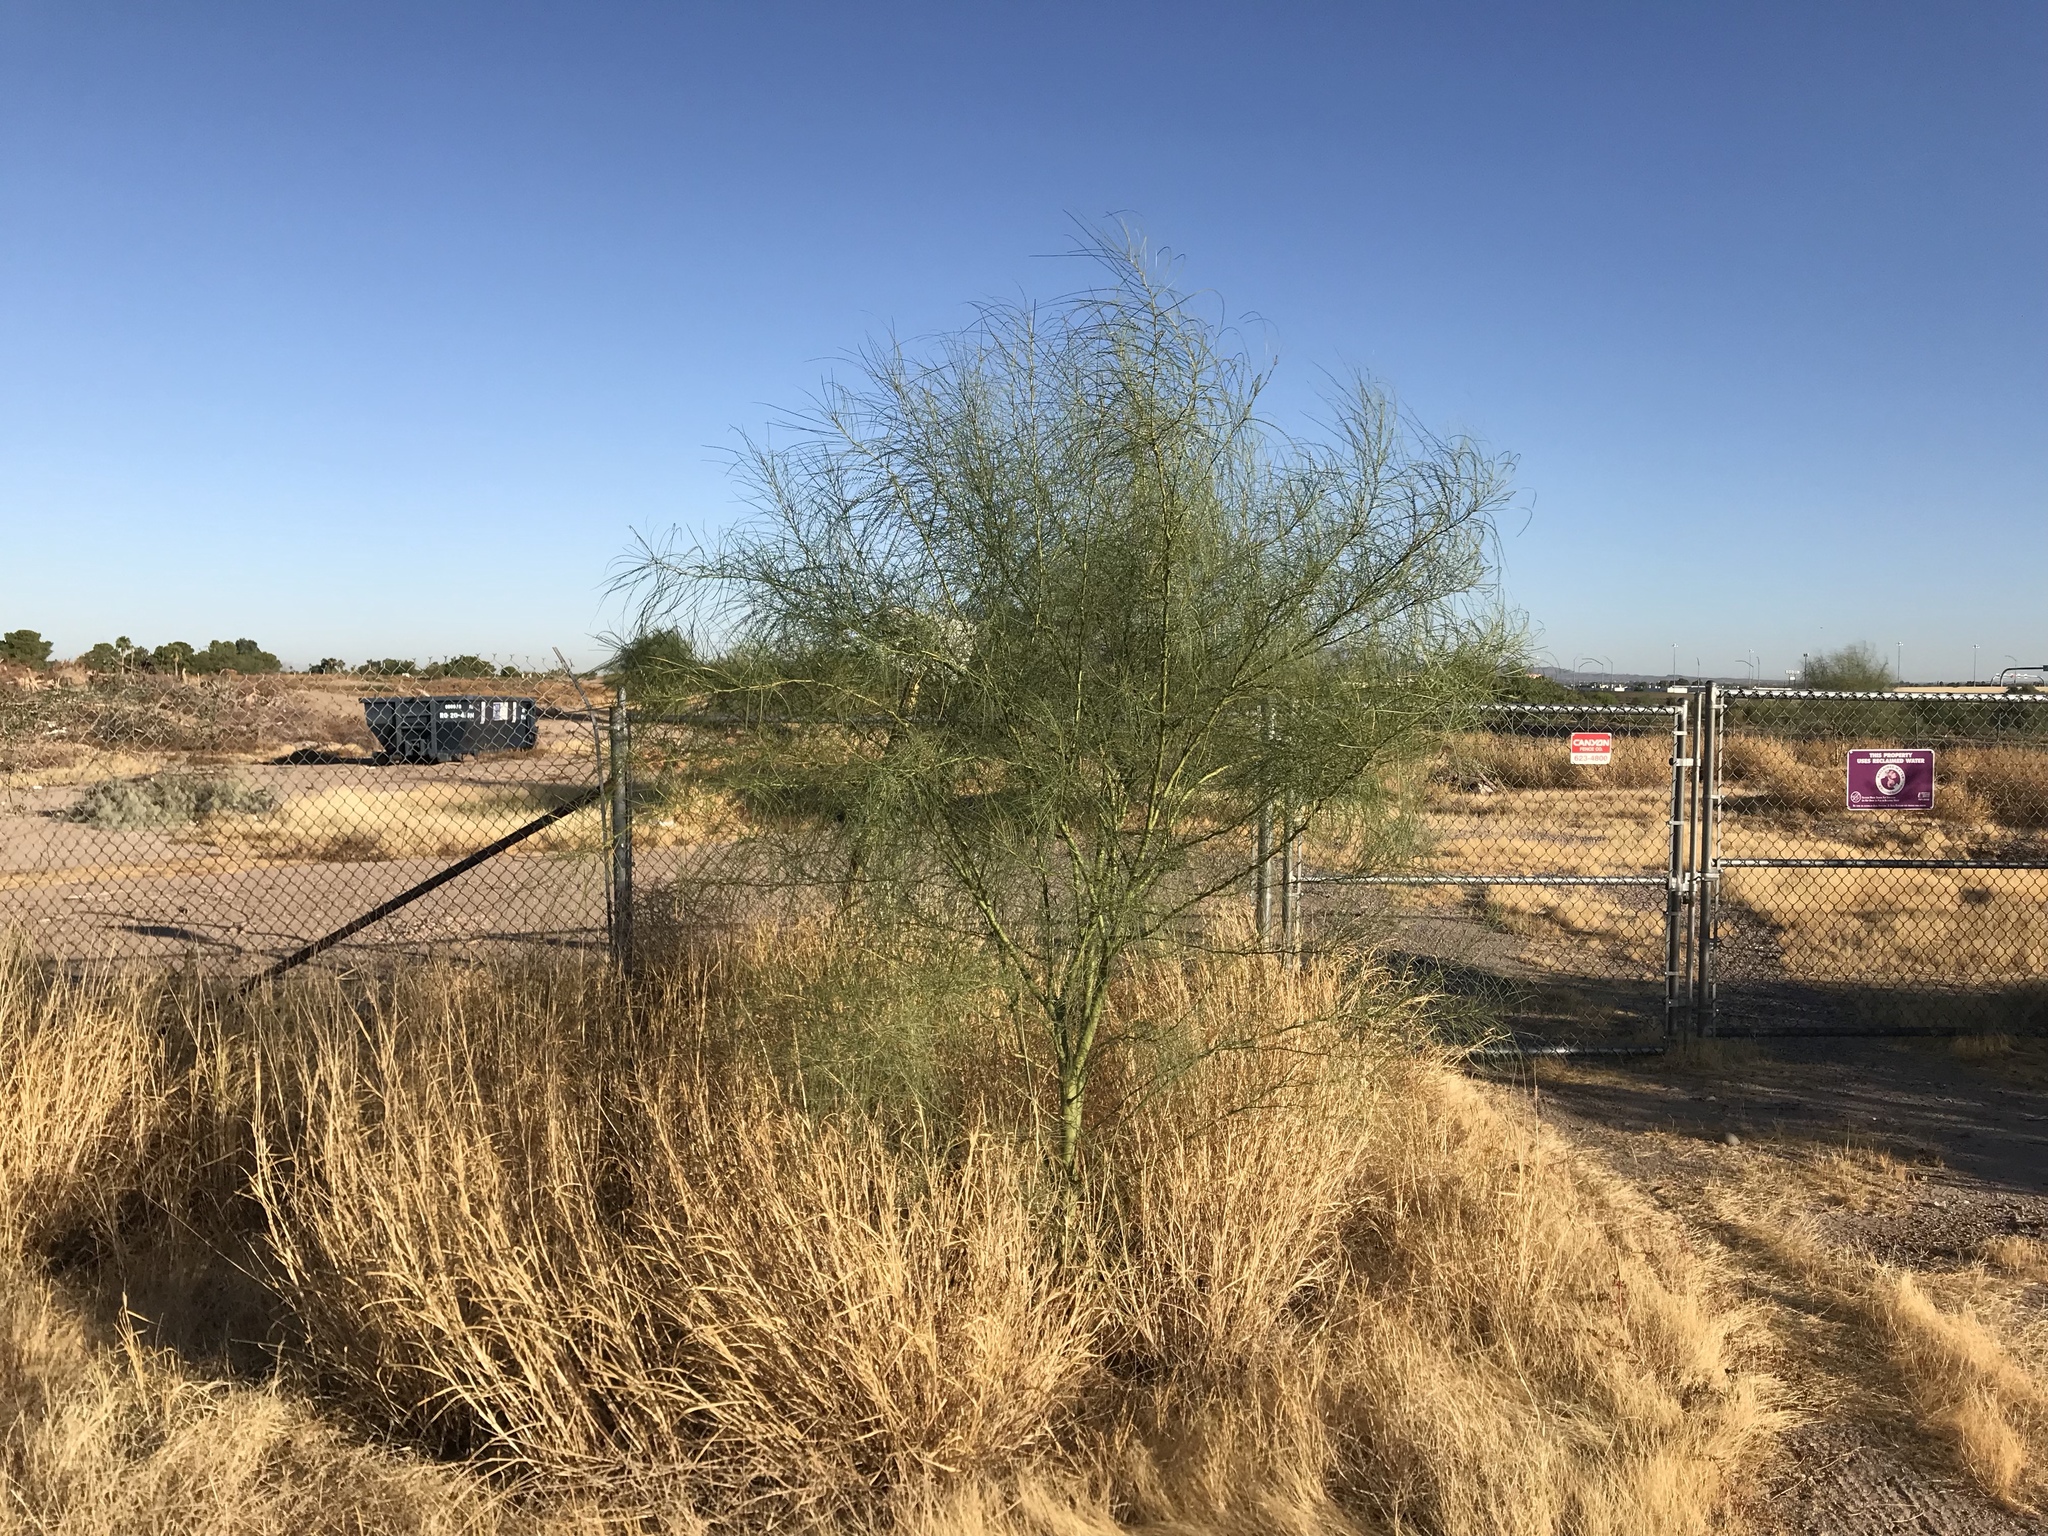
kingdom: Plantae
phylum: Tracheophyta
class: Magnoliopsida
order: Fabales
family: Fabaceae
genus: Parkinsonia
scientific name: Parkinsonia aculeata
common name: Jerusalem thorn
